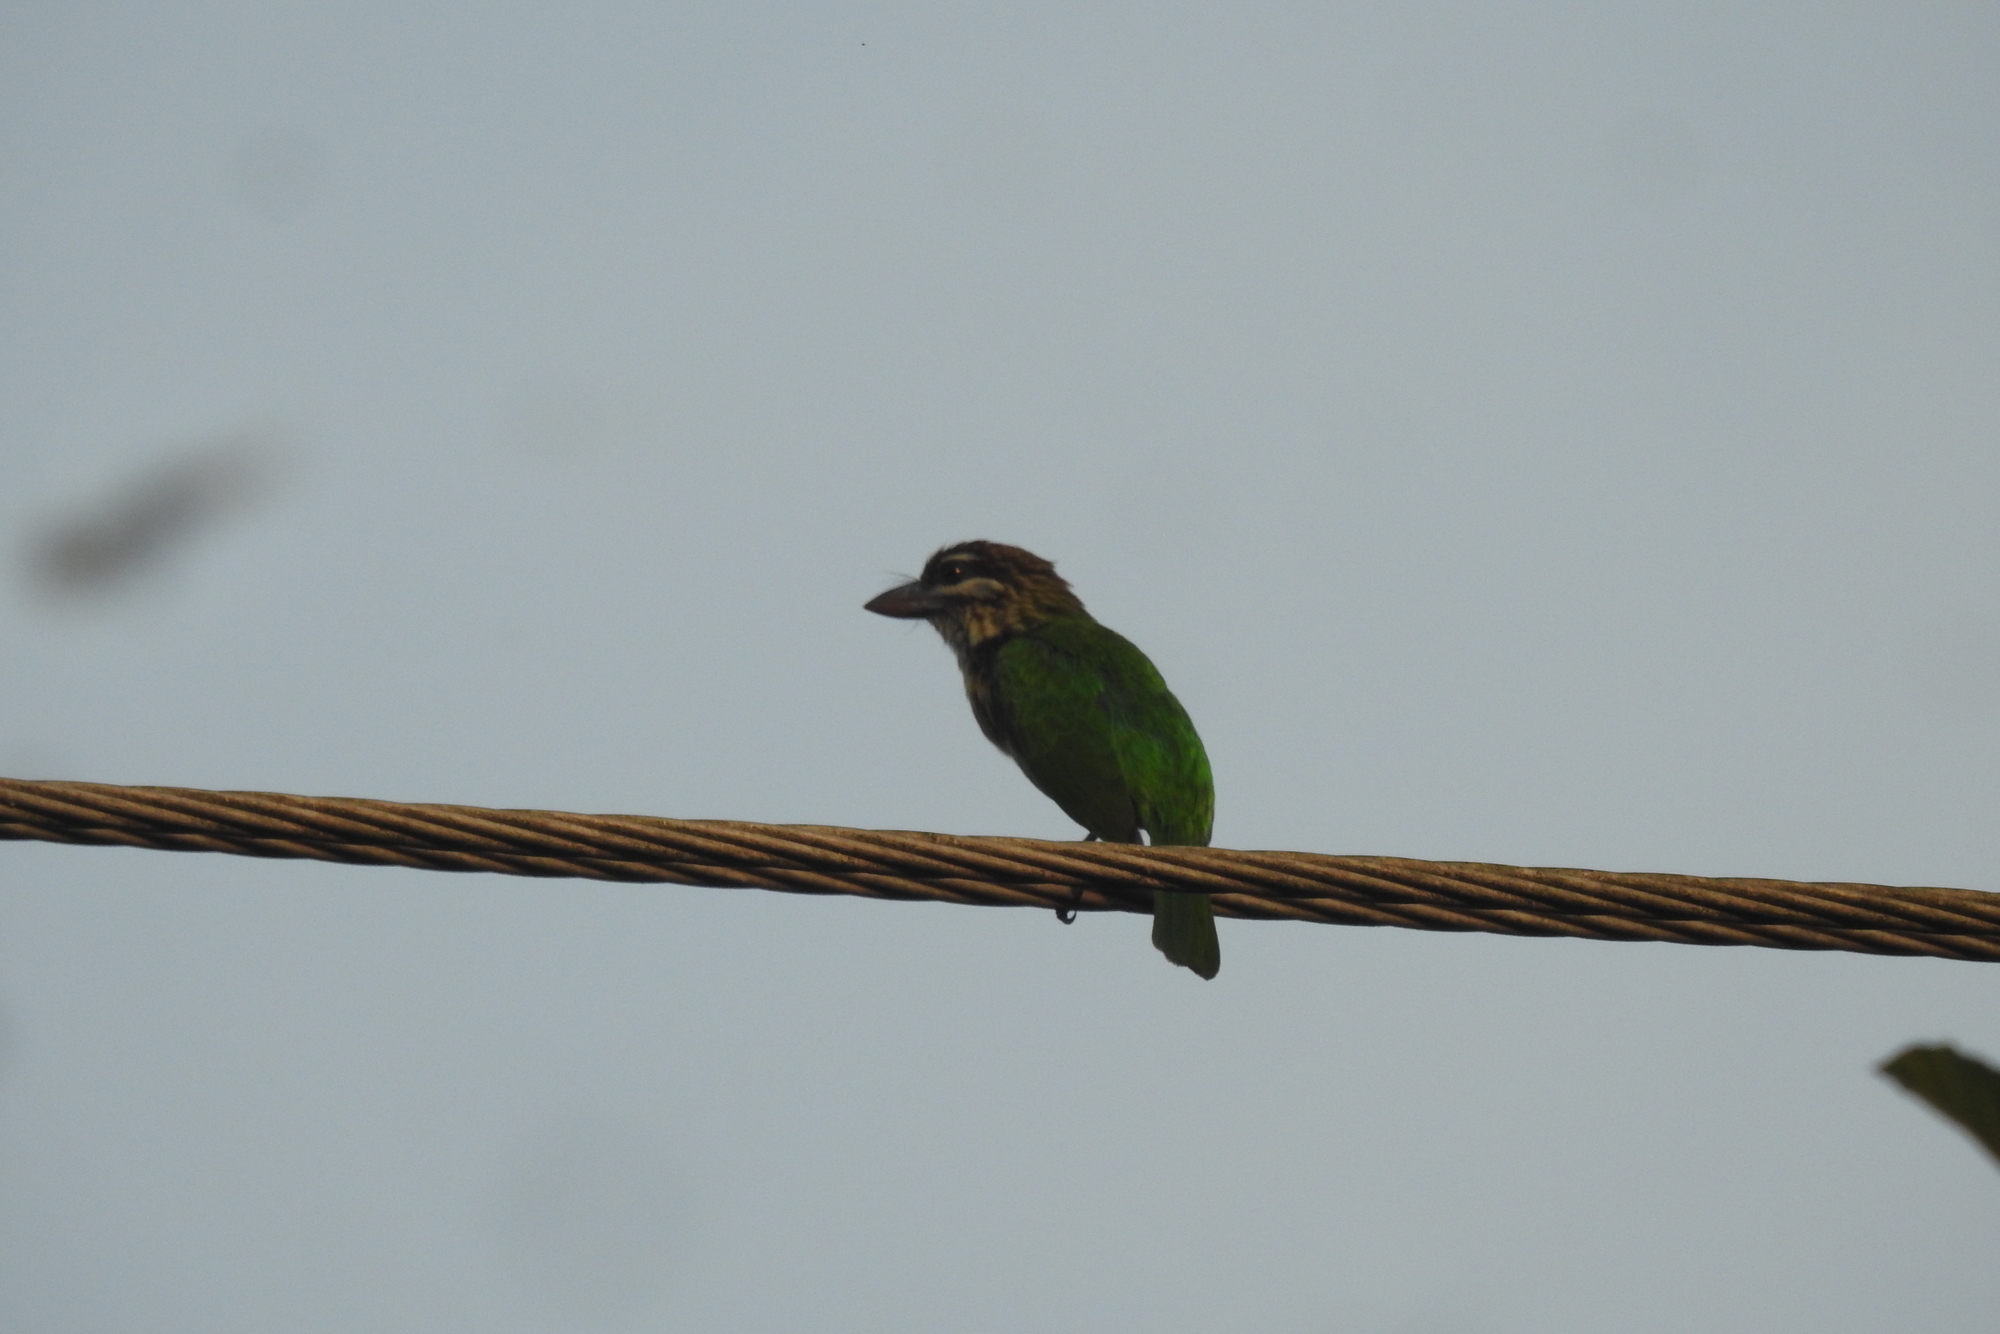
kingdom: Animalia
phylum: Chordata
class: Aves
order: Piciformes
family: Megalaimidae
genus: Psilopogon
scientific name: Psilopogon viridis
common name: White-cheeked barbet
